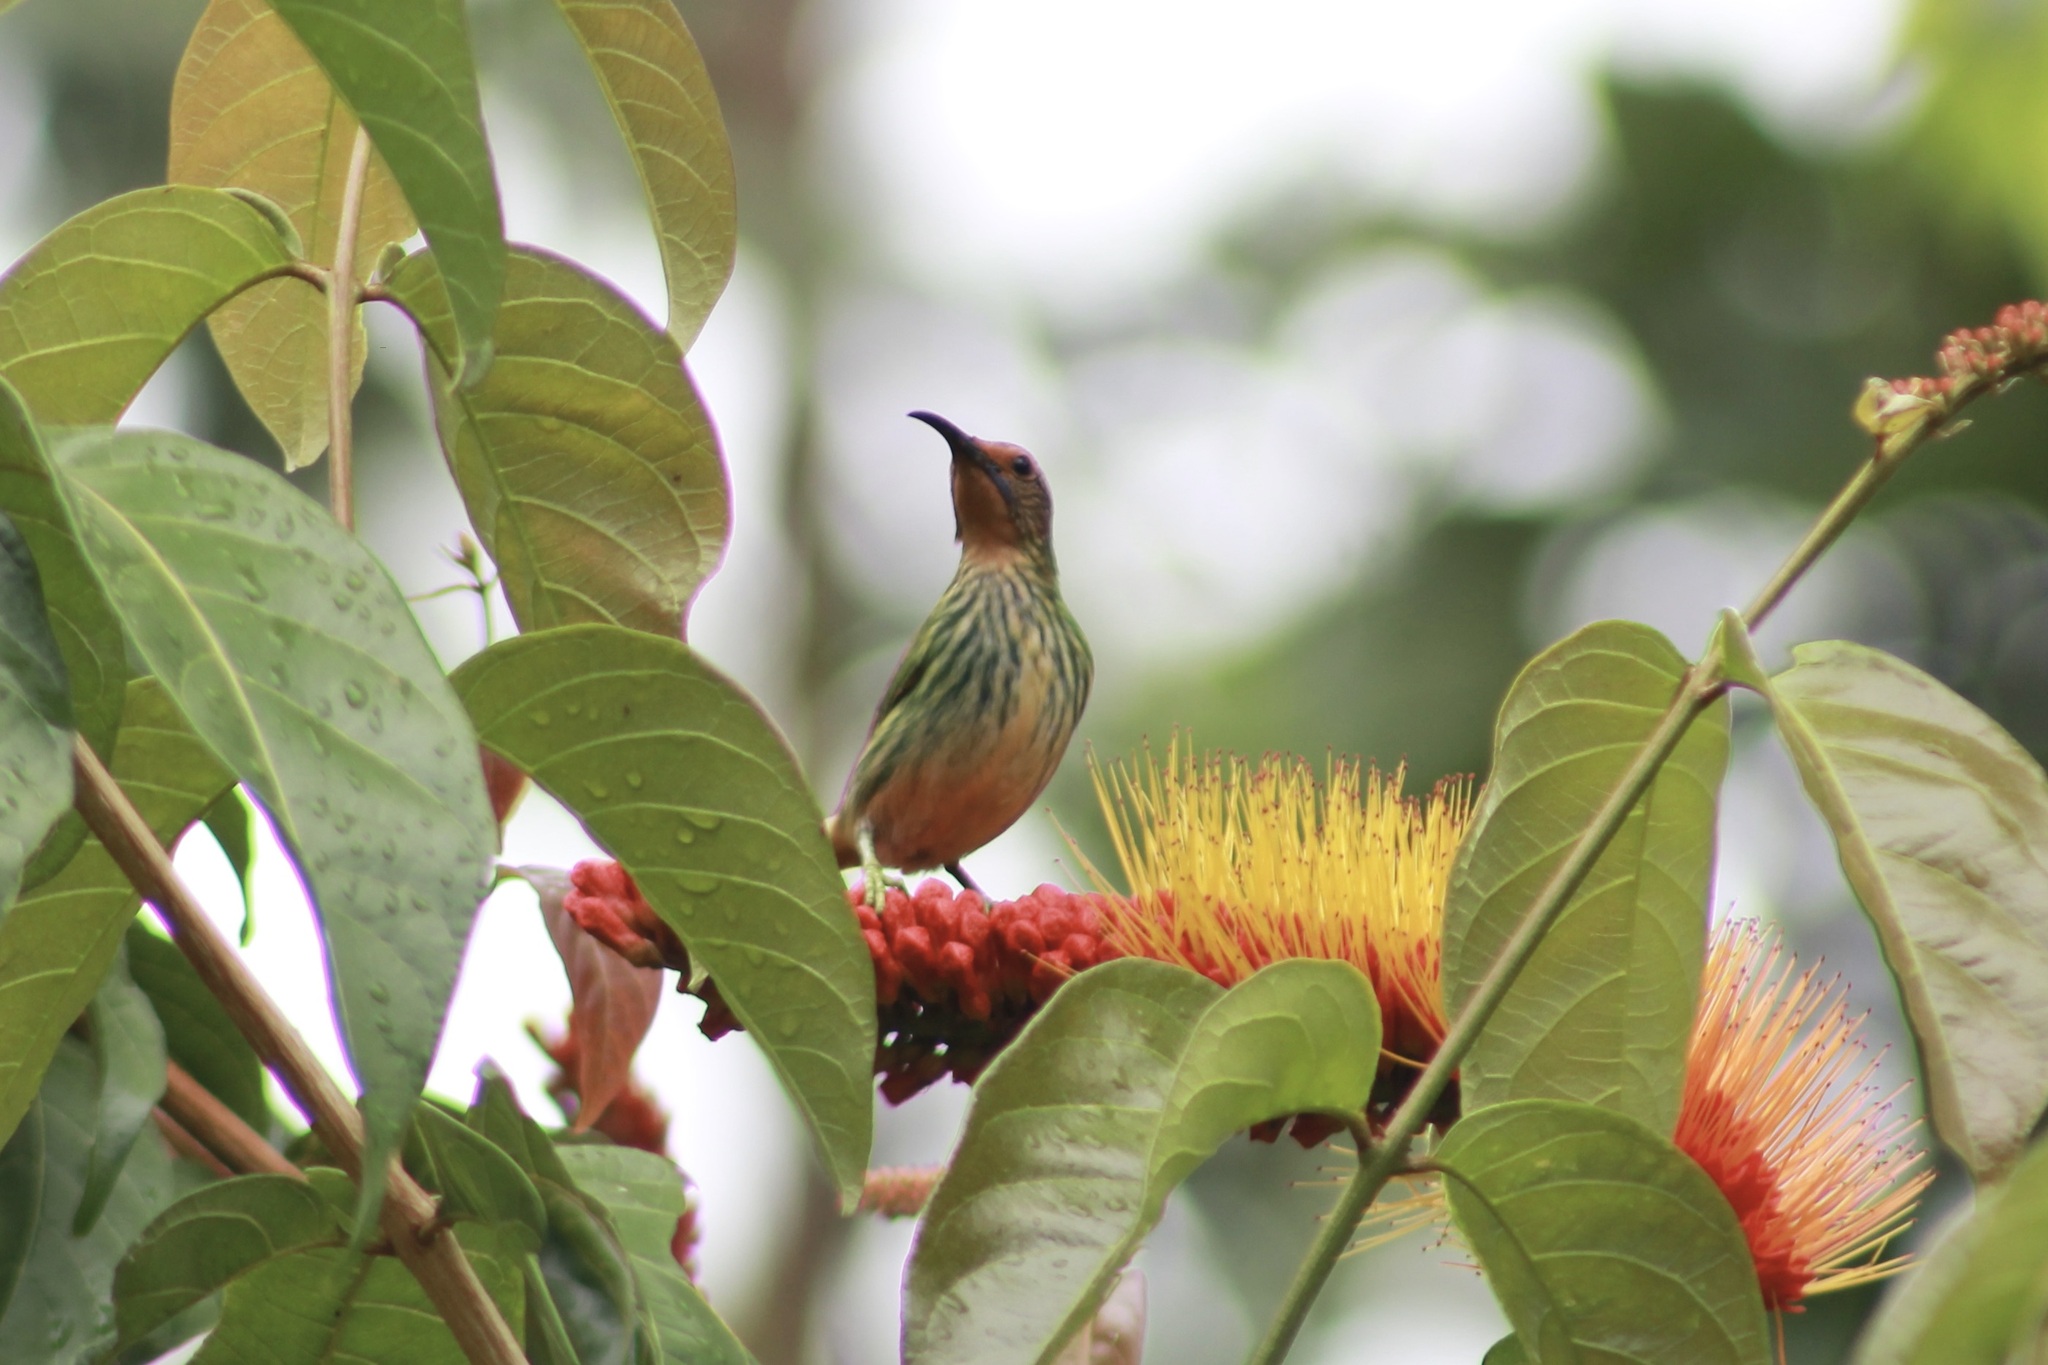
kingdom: Animalia
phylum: Chordata
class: Aves
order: Passeriformes
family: Thraupidae
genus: Cyanerpes
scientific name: Cyanerpes caeruleus
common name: Purple honeycreeper
